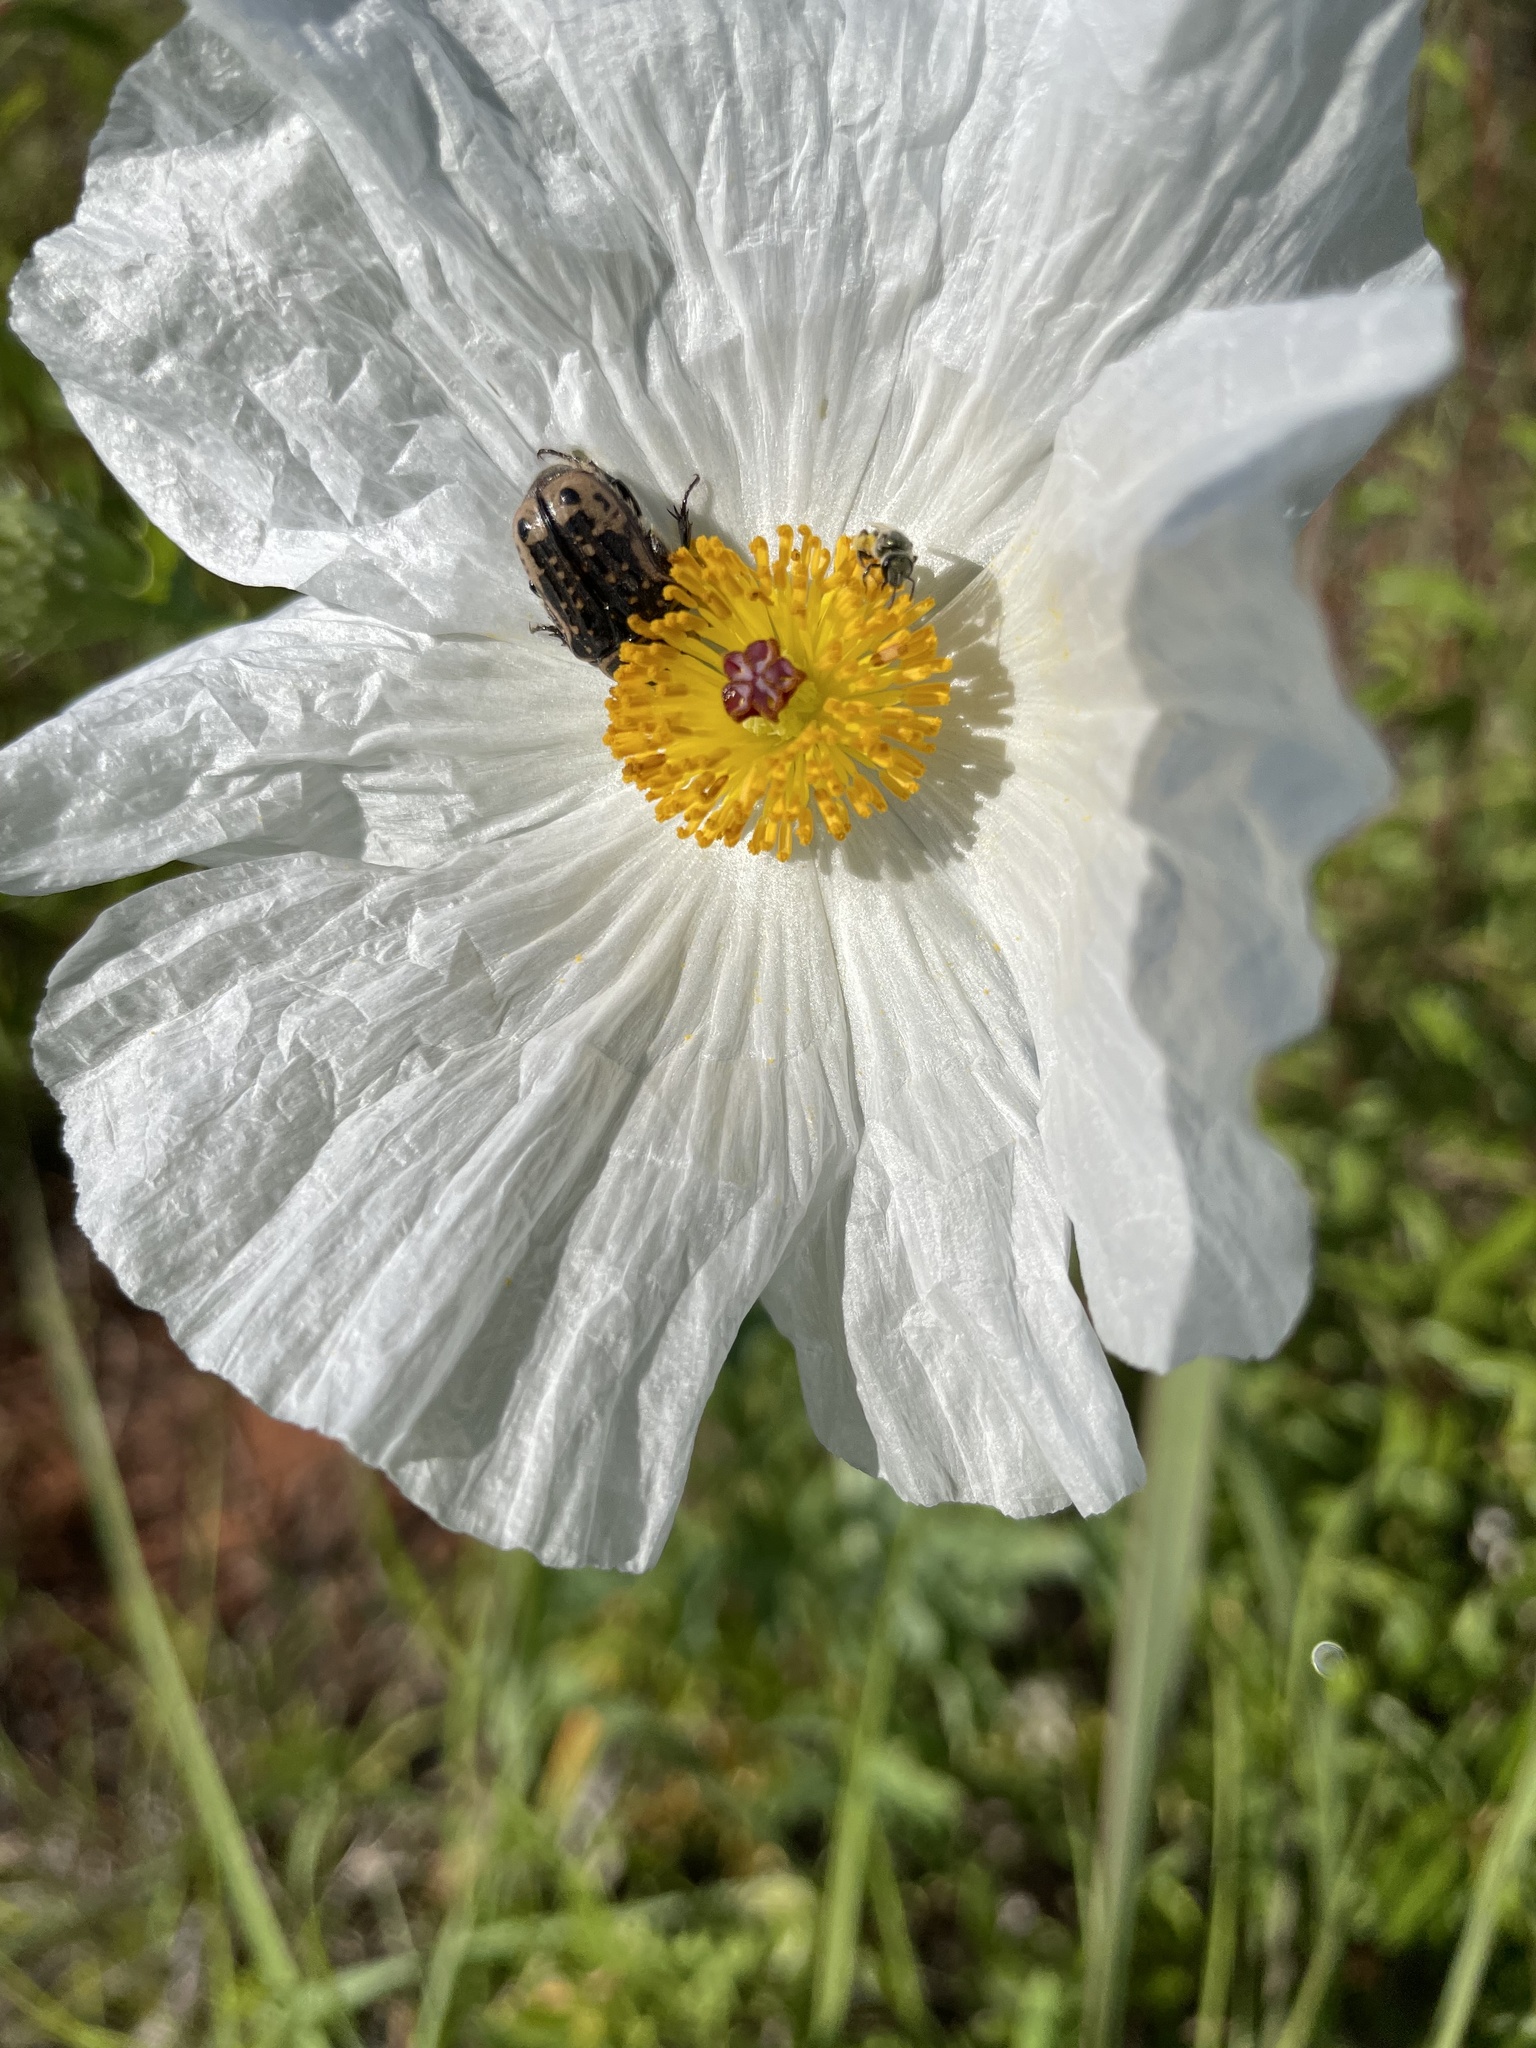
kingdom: Animalia
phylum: Arthropoda
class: Insecta
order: Coleoptera
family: Scarabaeidae
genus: Euphoria
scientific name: Euphoria kernii
